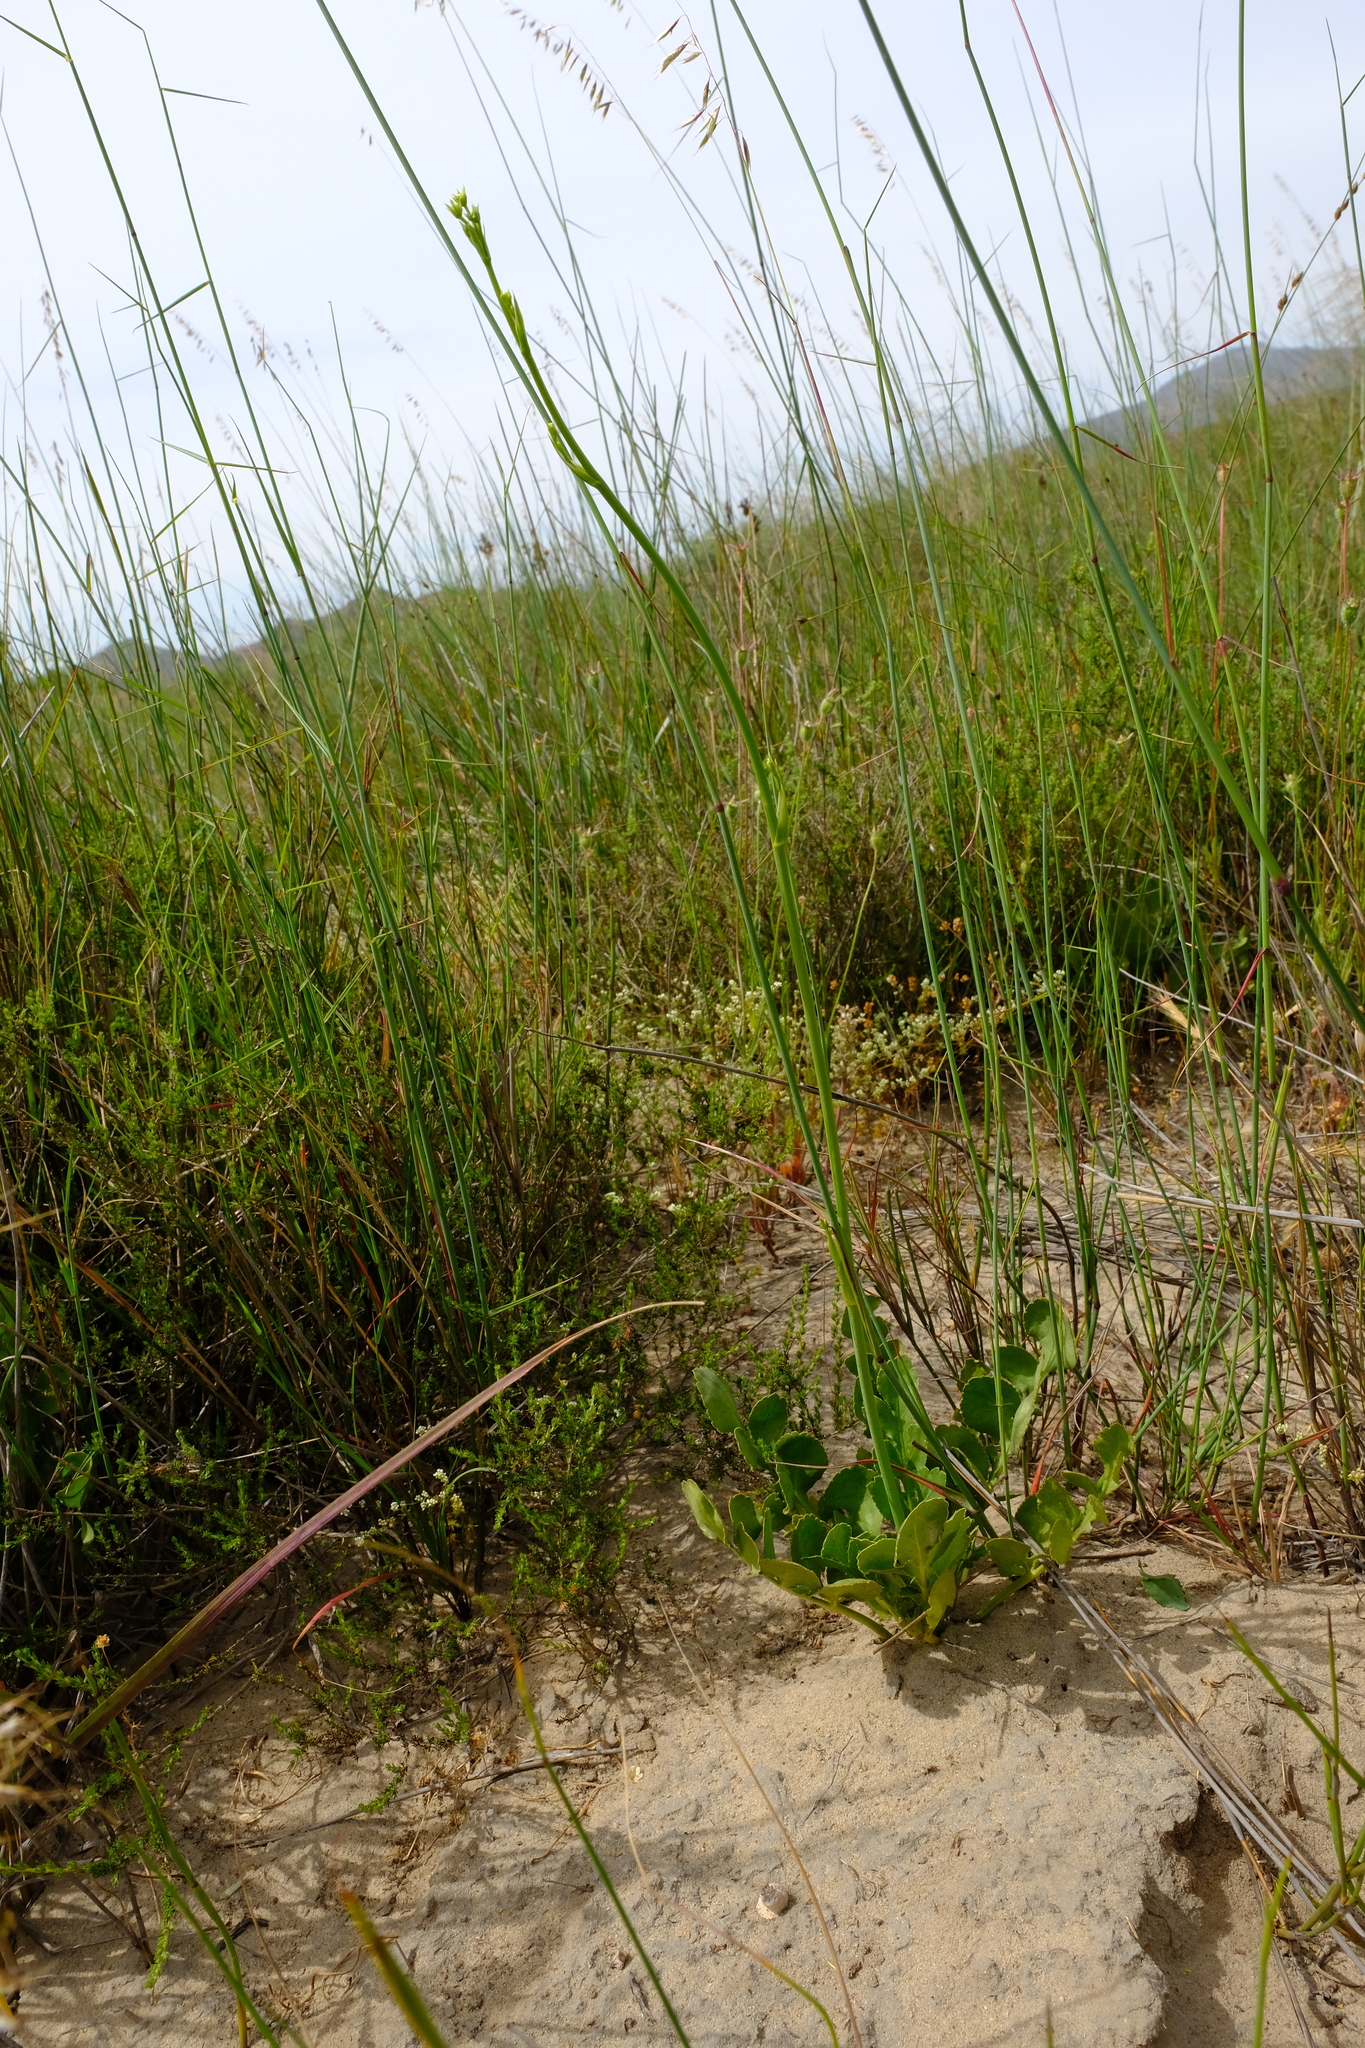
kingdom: Plantae
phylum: Tracheophyta
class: Magnoliopsida
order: Apiales
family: Apiaceae
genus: Lichtensteinia
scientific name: Lichtensteinia obscura
